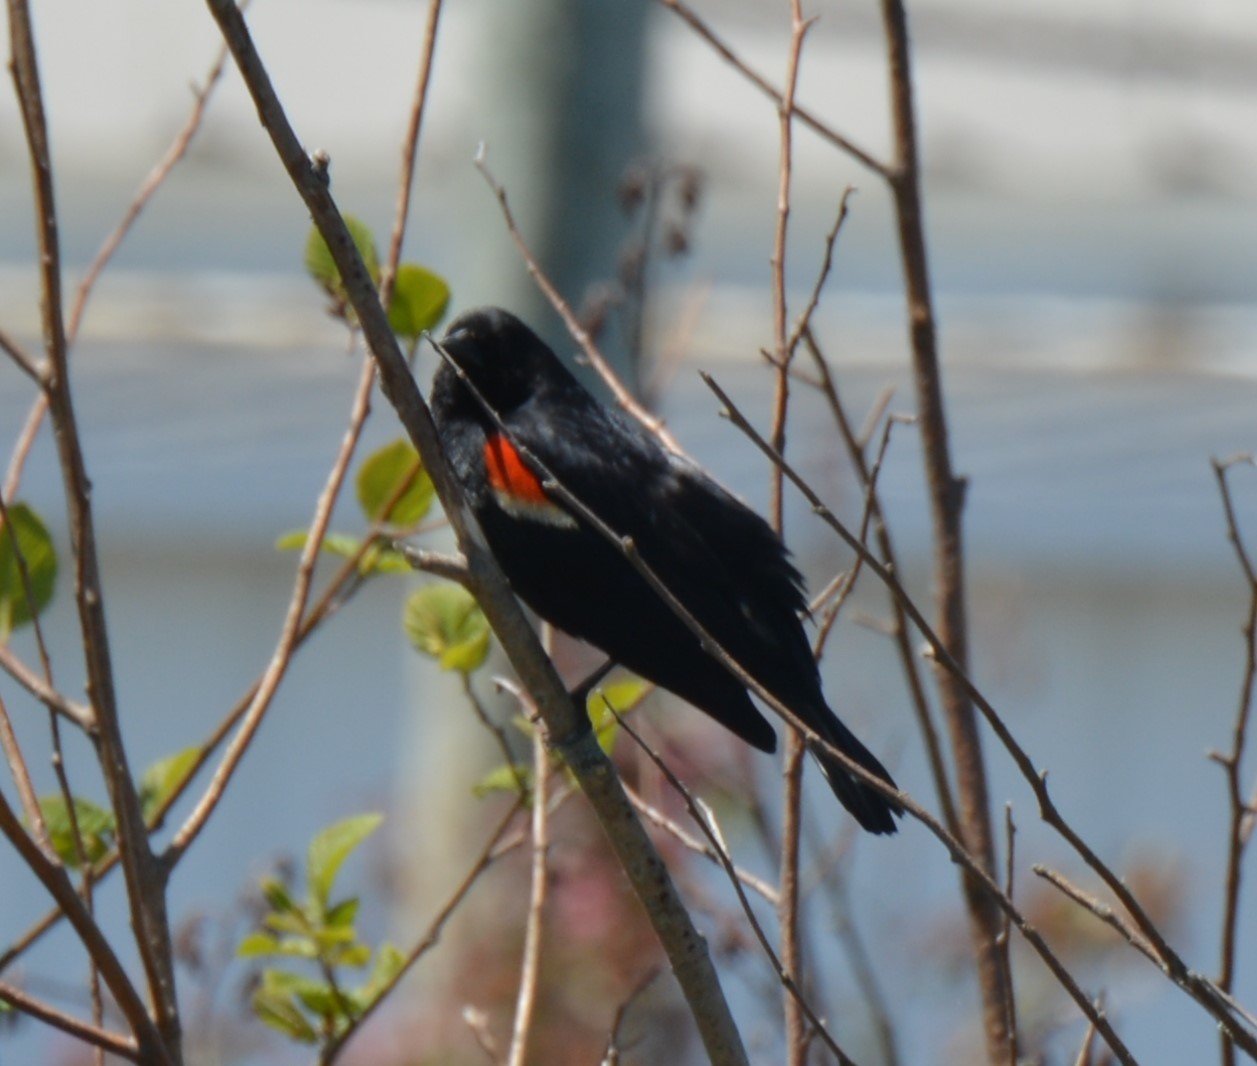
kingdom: Animalia
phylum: Chordata
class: Aves
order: Passeriformes
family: Icteridae
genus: Agelaius
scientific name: Agelaius phoeniceus
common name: Red-winged blackbird
